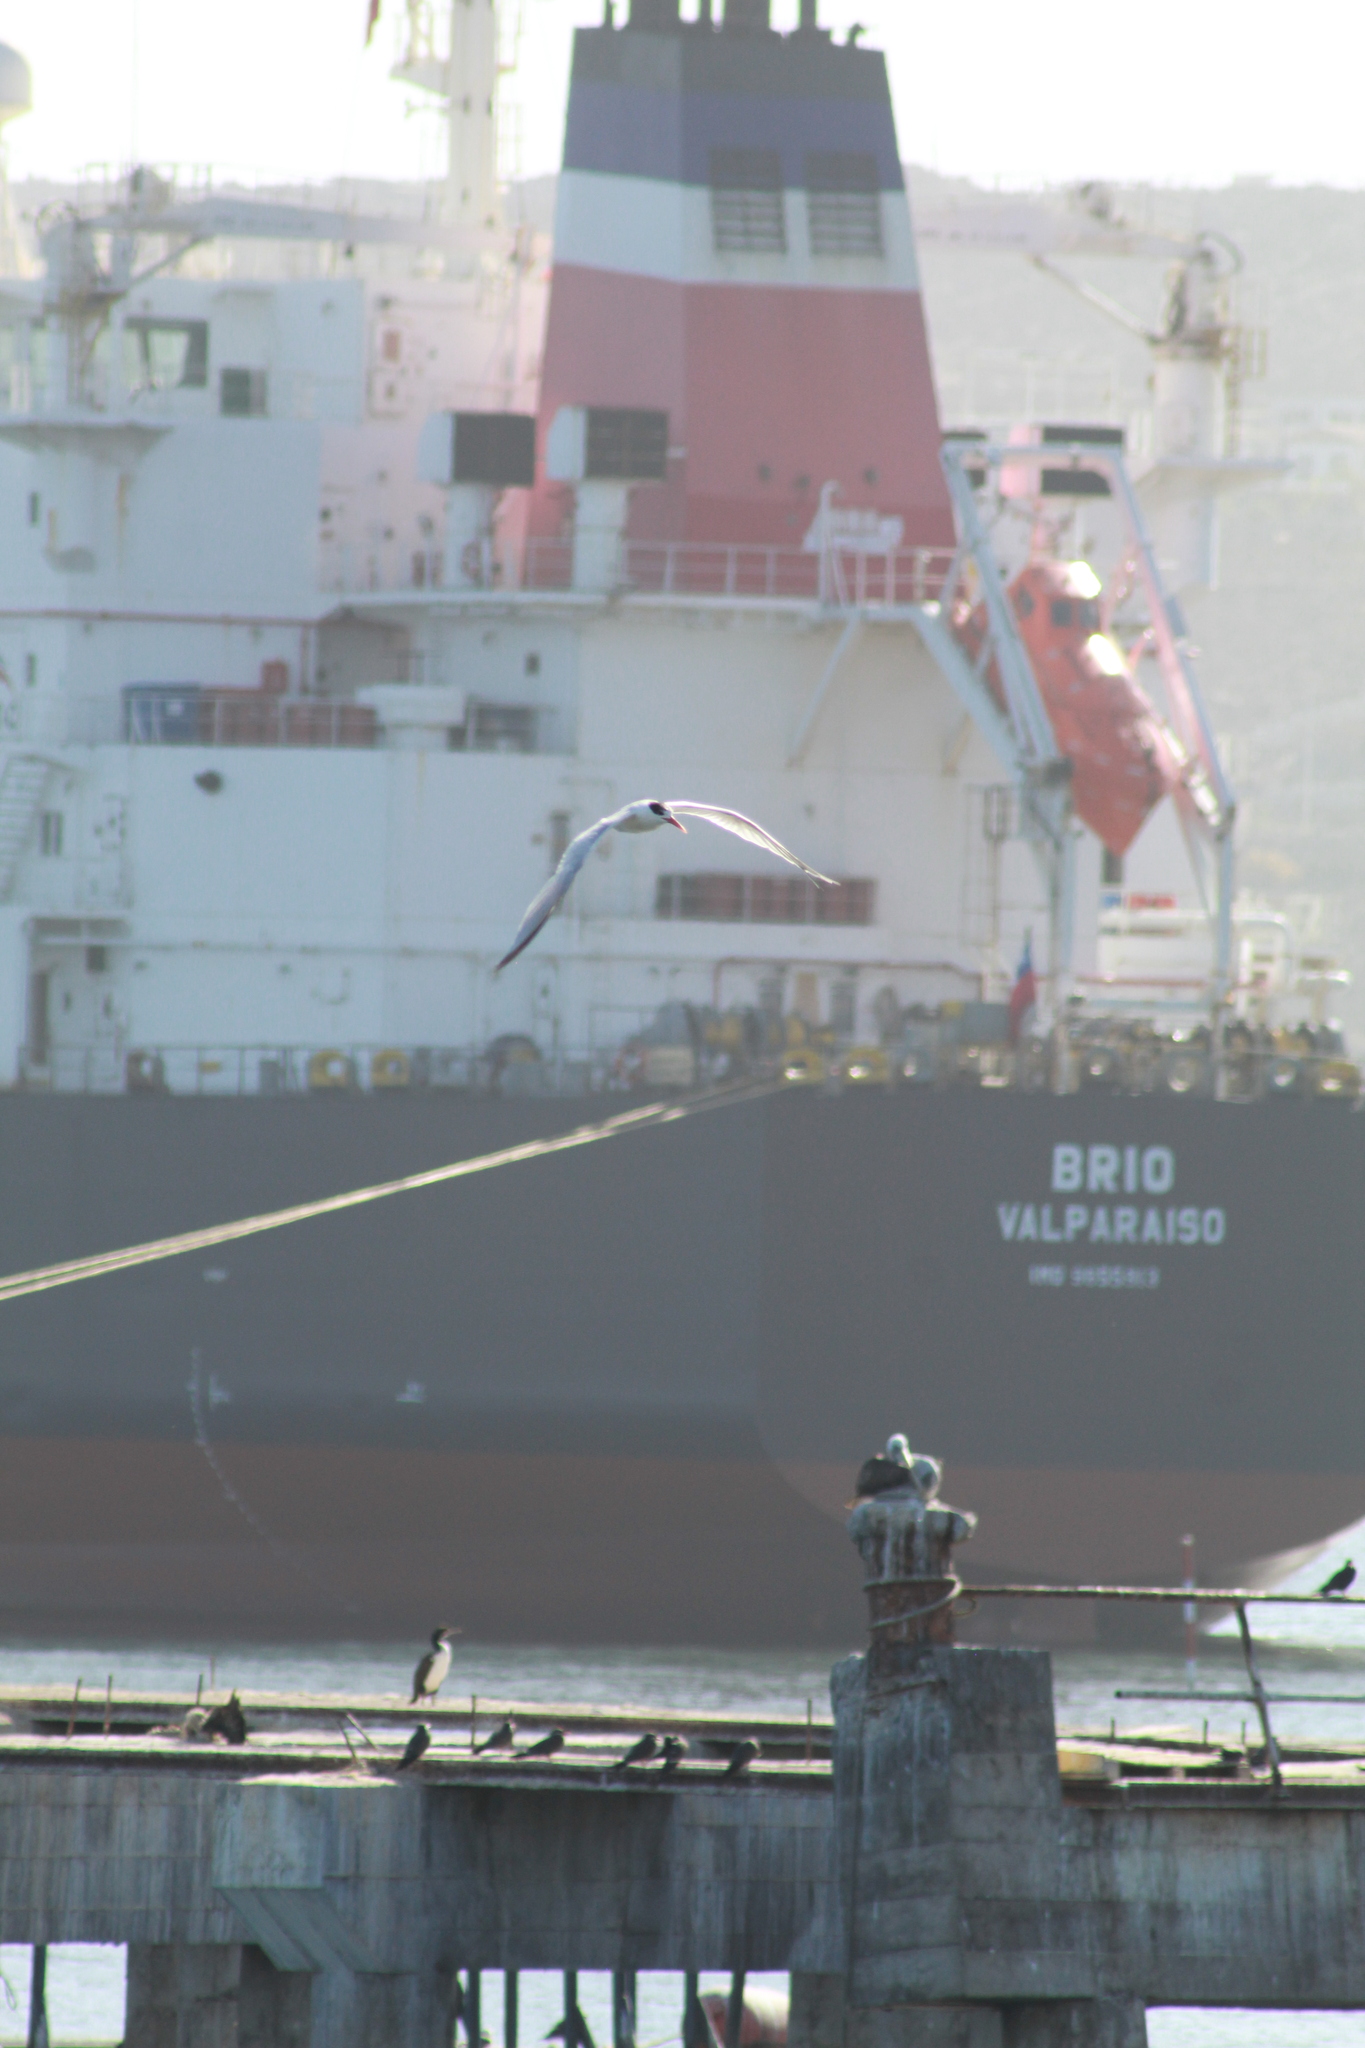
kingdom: Animalia
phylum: Chordata
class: Aves
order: Charadriiformes
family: Laridae
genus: Thalasseus
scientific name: Thalasseus elegans
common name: Elegant tern
